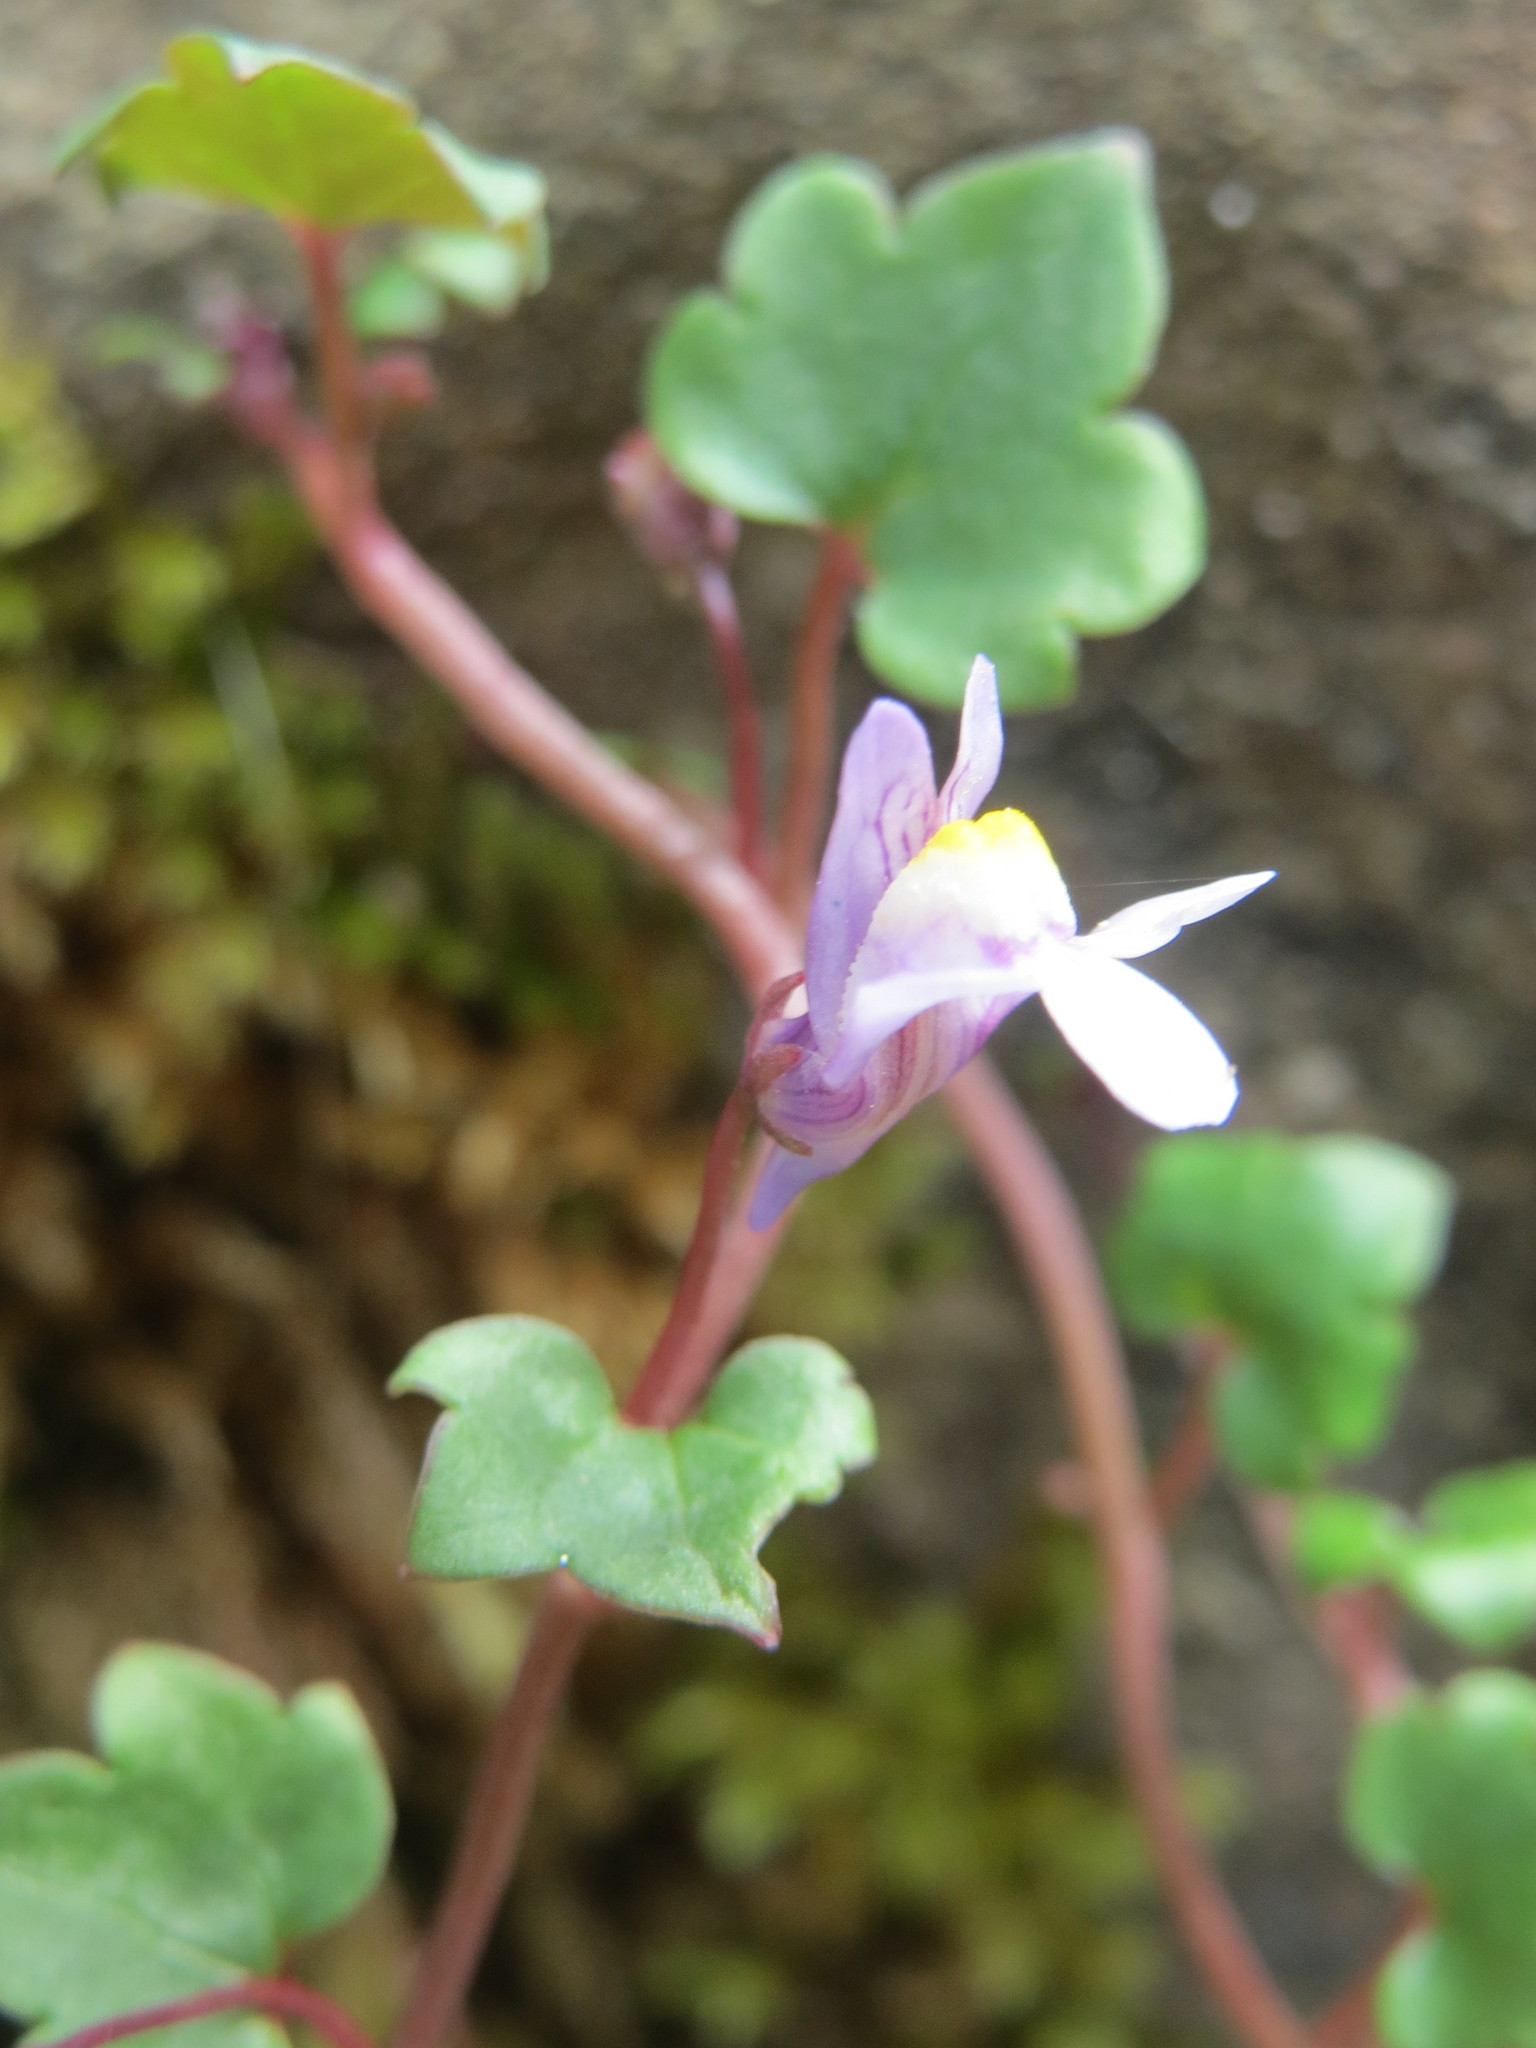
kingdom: Plantae
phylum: Tracheophyta
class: Magnoliopsida
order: Lamiales
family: Plantaginaceae
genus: Cymbalaria
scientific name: Cymbalaria muralis
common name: Ivy-leaved toadflax
